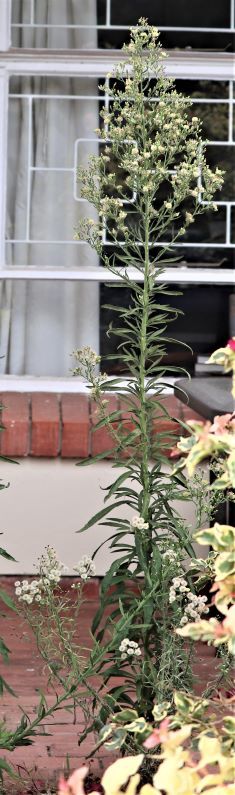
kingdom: Plantae
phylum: Tracheophyta
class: Magnoliopsida
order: Asterales
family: Asteraceae
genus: Erigeron
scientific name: Erigeron sumatrensis
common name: Daisy
